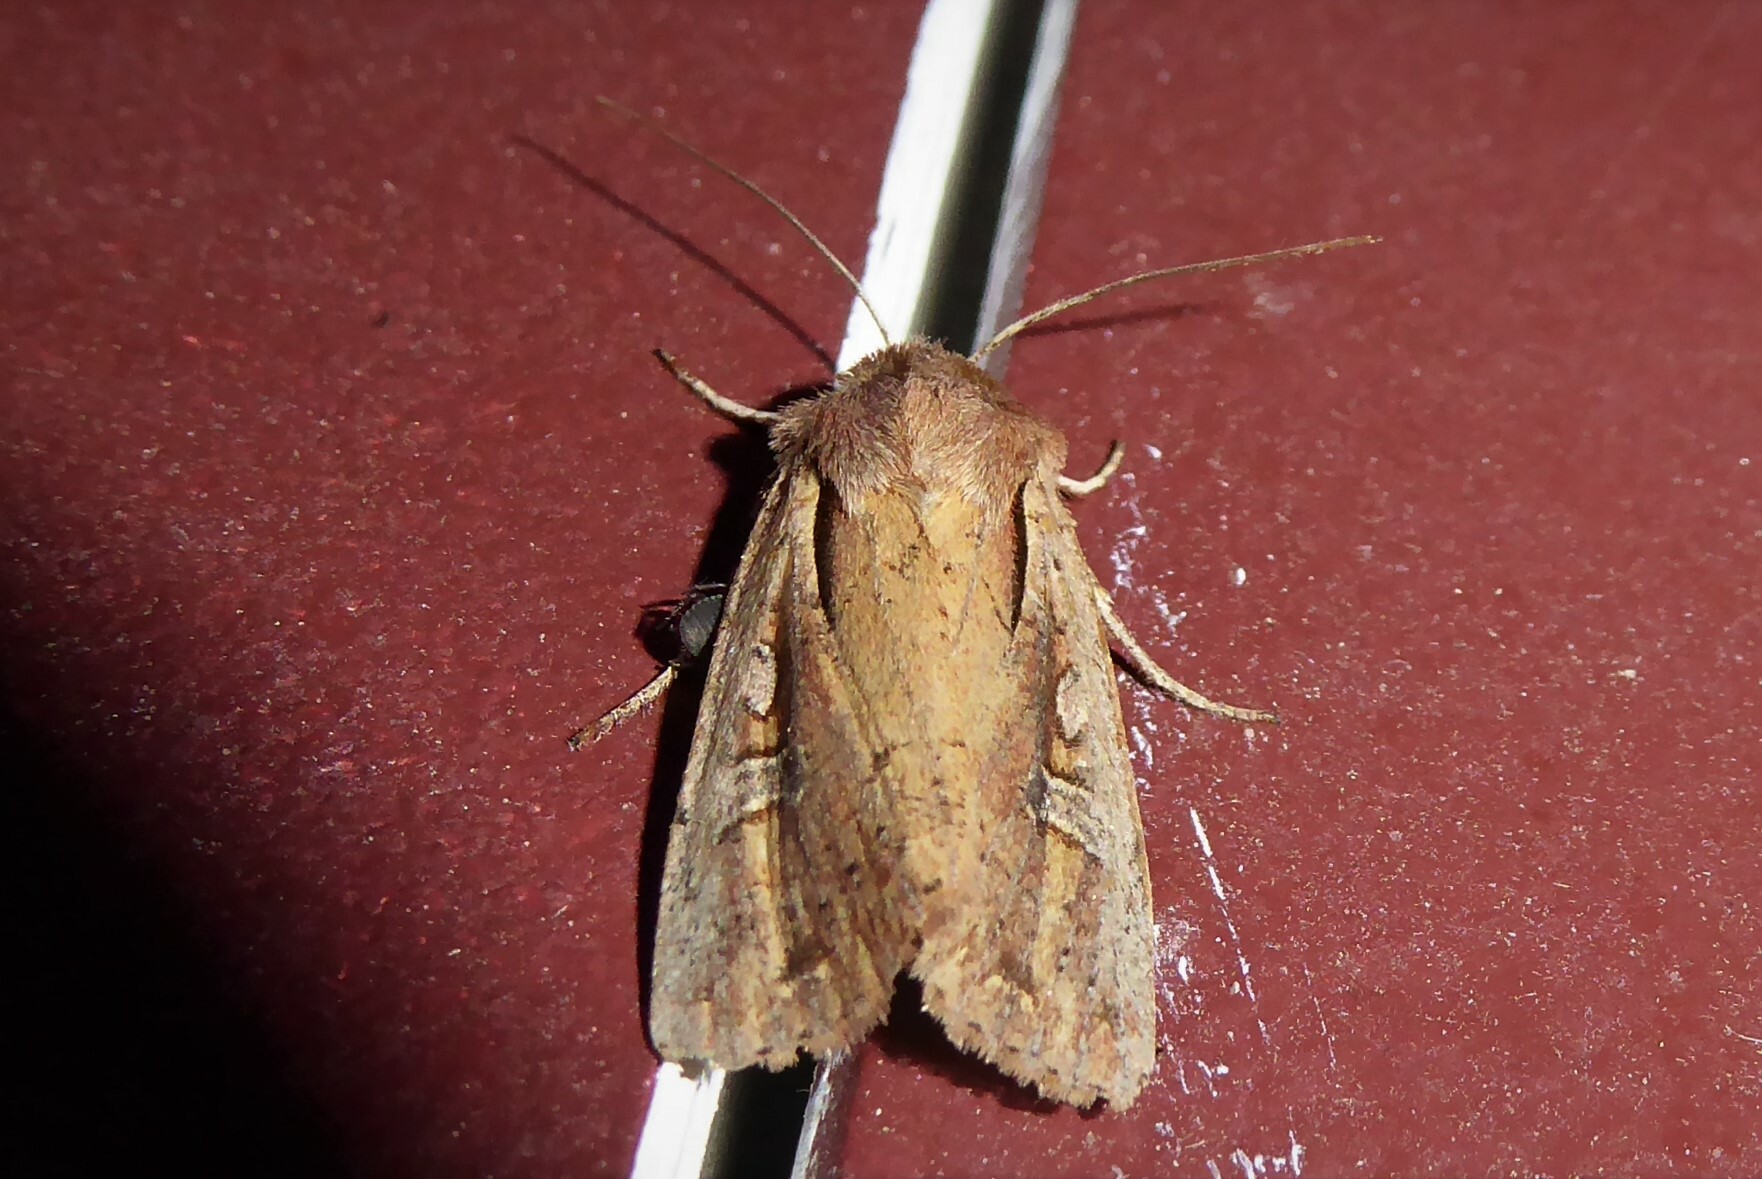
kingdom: Animalia
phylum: Arthropoda
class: Insecta
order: Lepidoptera
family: Noctuidae
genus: Ichneutica
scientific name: Ichneutica atristriga
